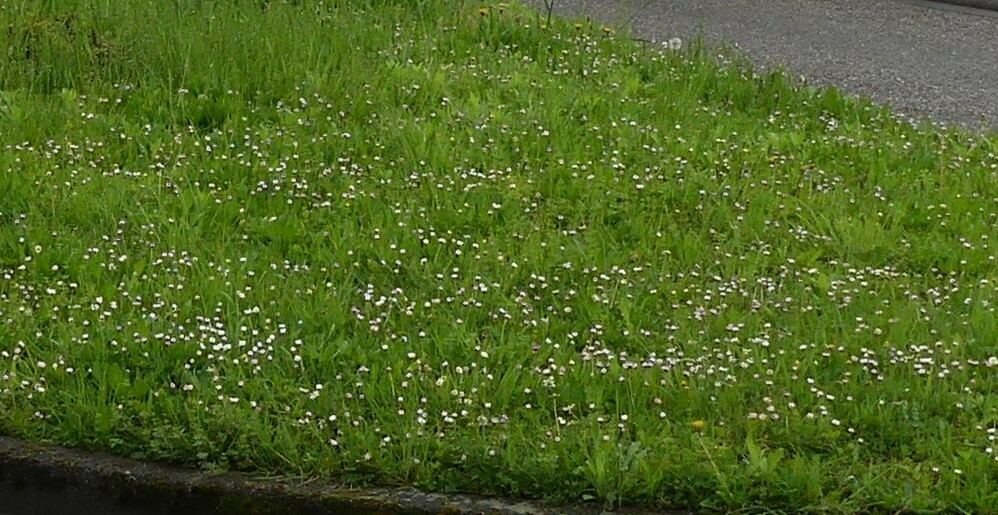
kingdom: Plantae
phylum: Tracheophyta
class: Magnoliopsida
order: Asterales
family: Asteraceae
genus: Bellis
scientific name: Bellis perennis
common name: Lawndaisy
